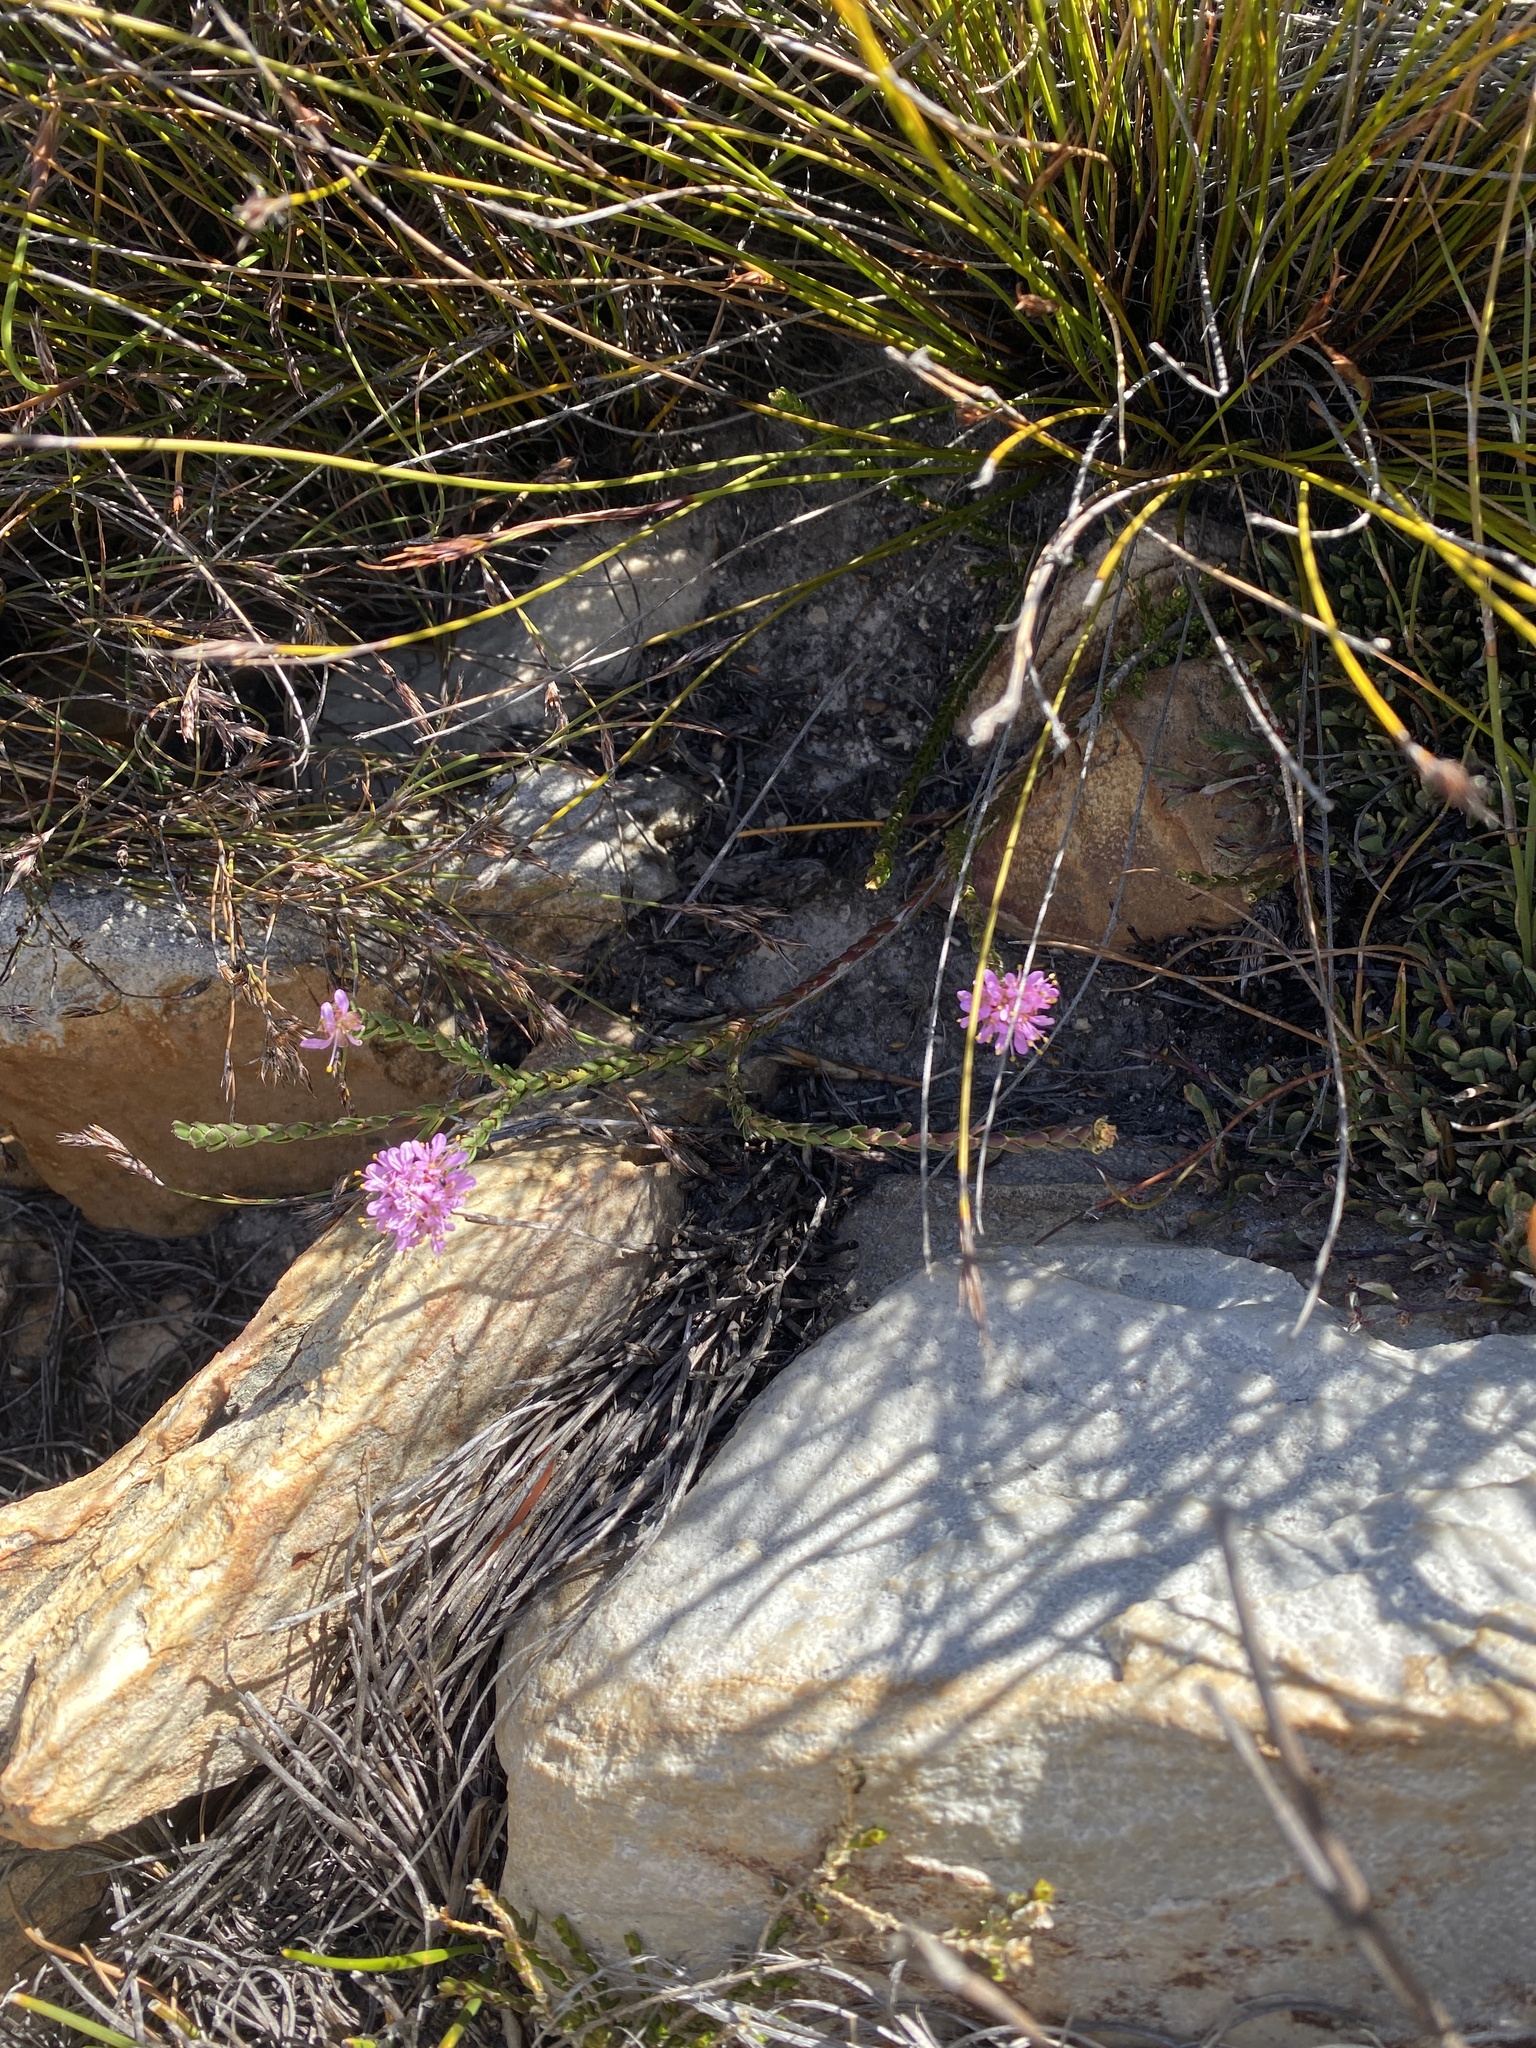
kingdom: Plantae
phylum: Tracheophyta
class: Magnoliopsida
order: Sapindales
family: Rutaceae
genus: Agathosma
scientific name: Agathosma foleyana
